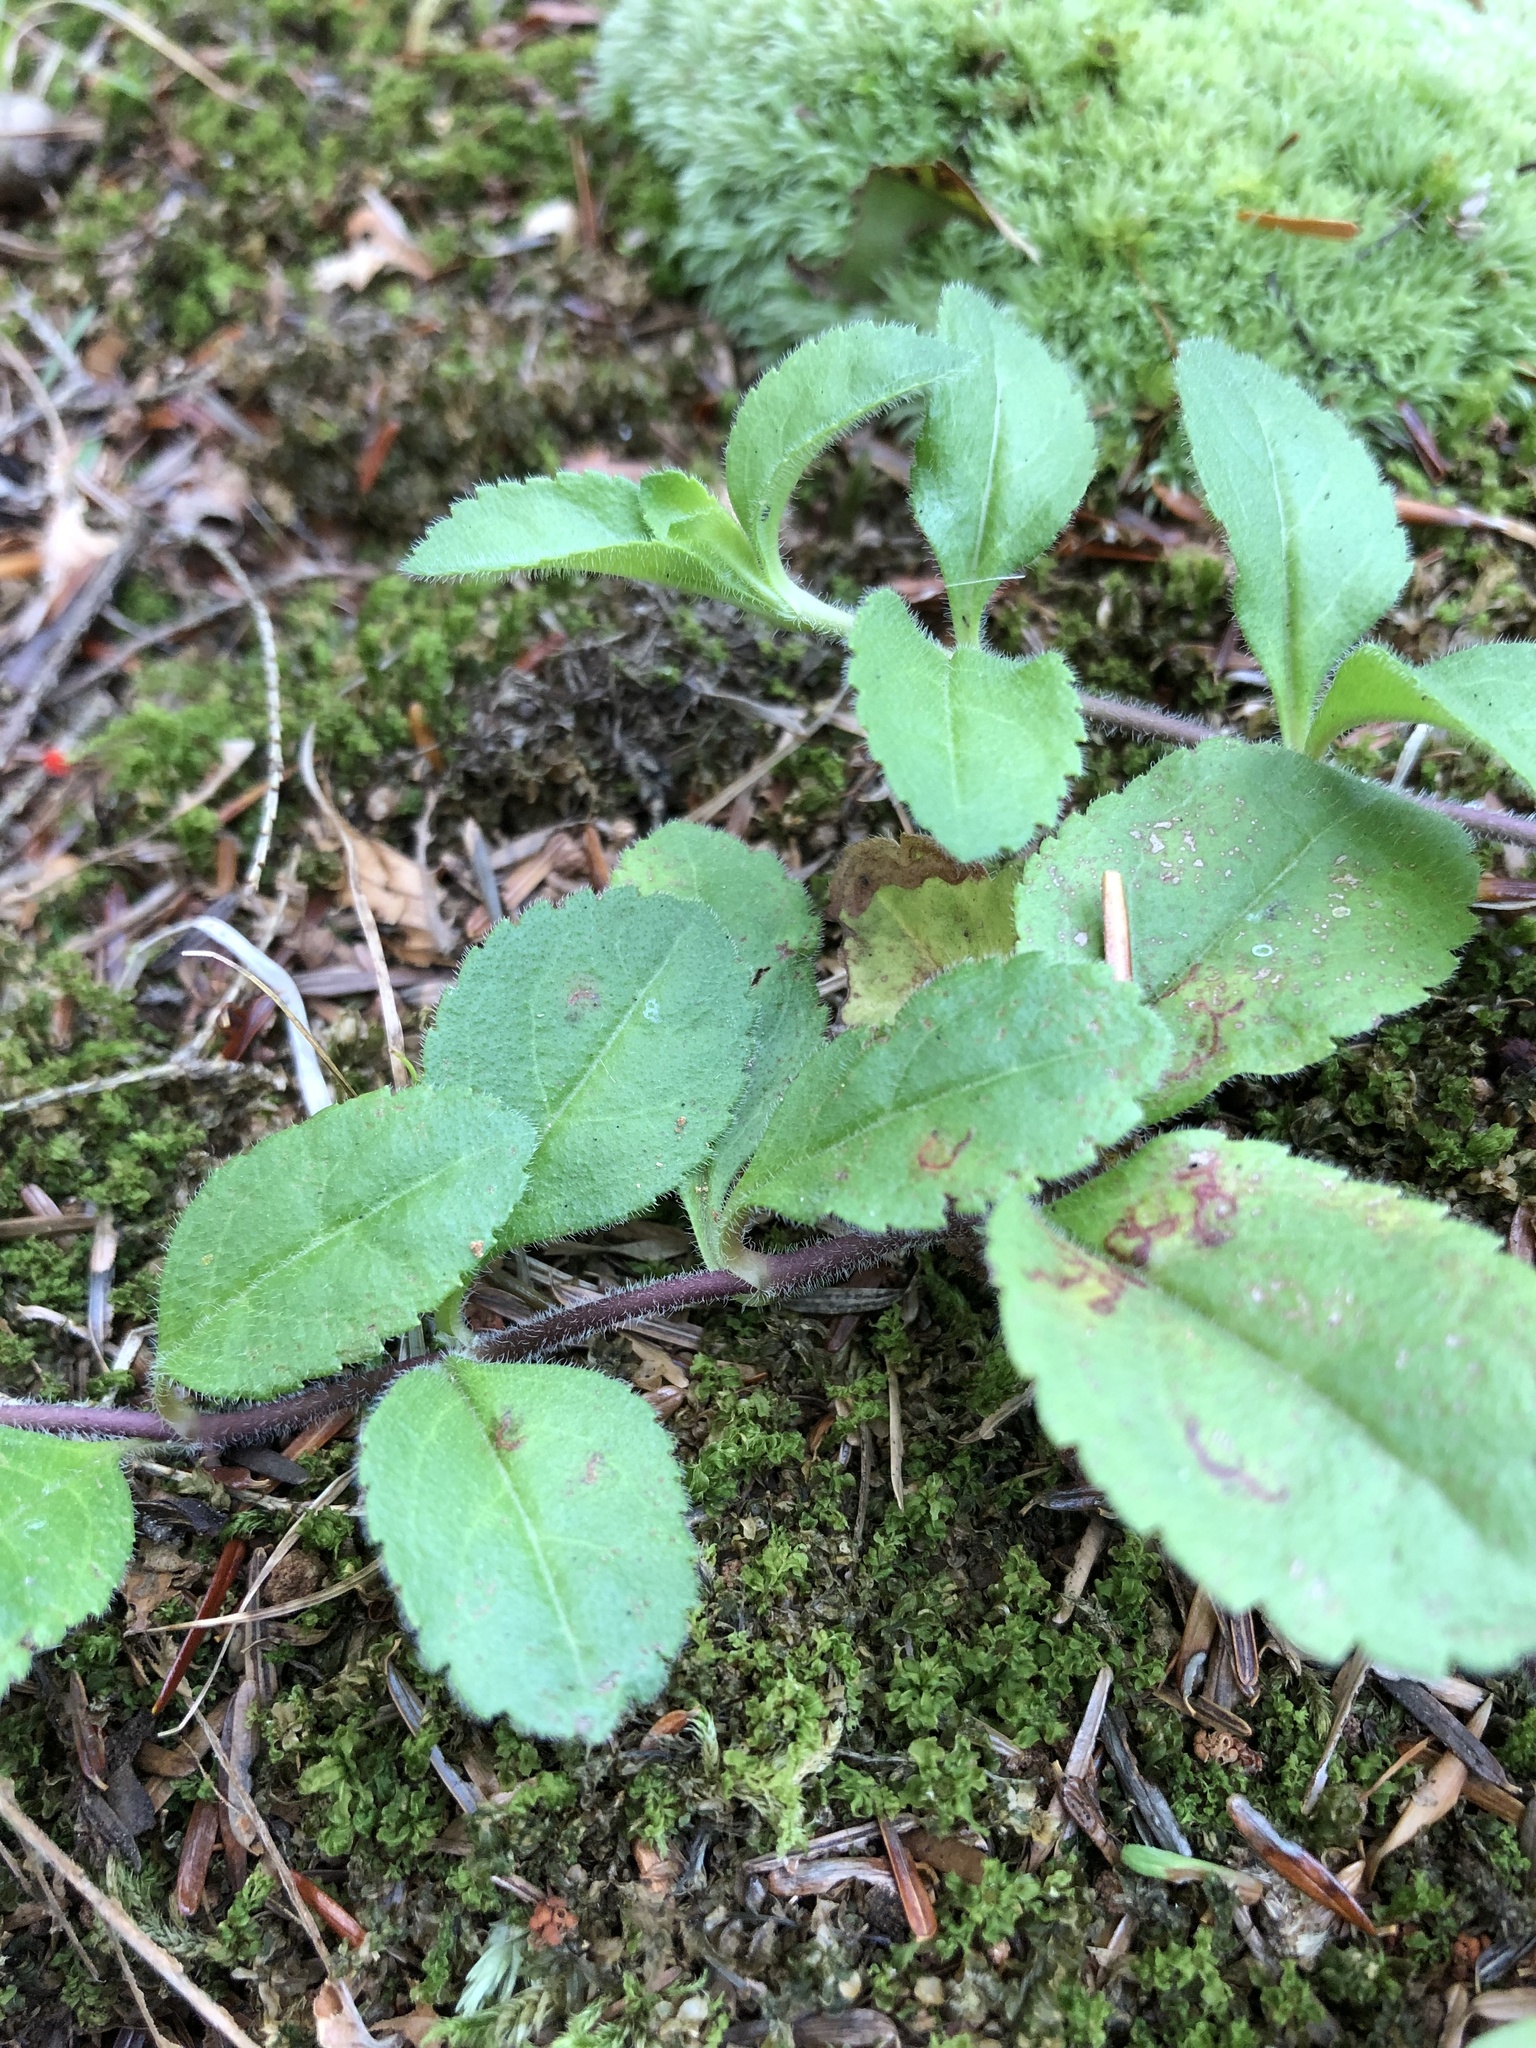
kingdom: Plantae
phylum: Tracheophyta
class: Magnoliopsida
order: Lamiales
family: Plantaginaceae
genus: Veronica
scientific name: Veronica officinalis
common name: Common speedwell
